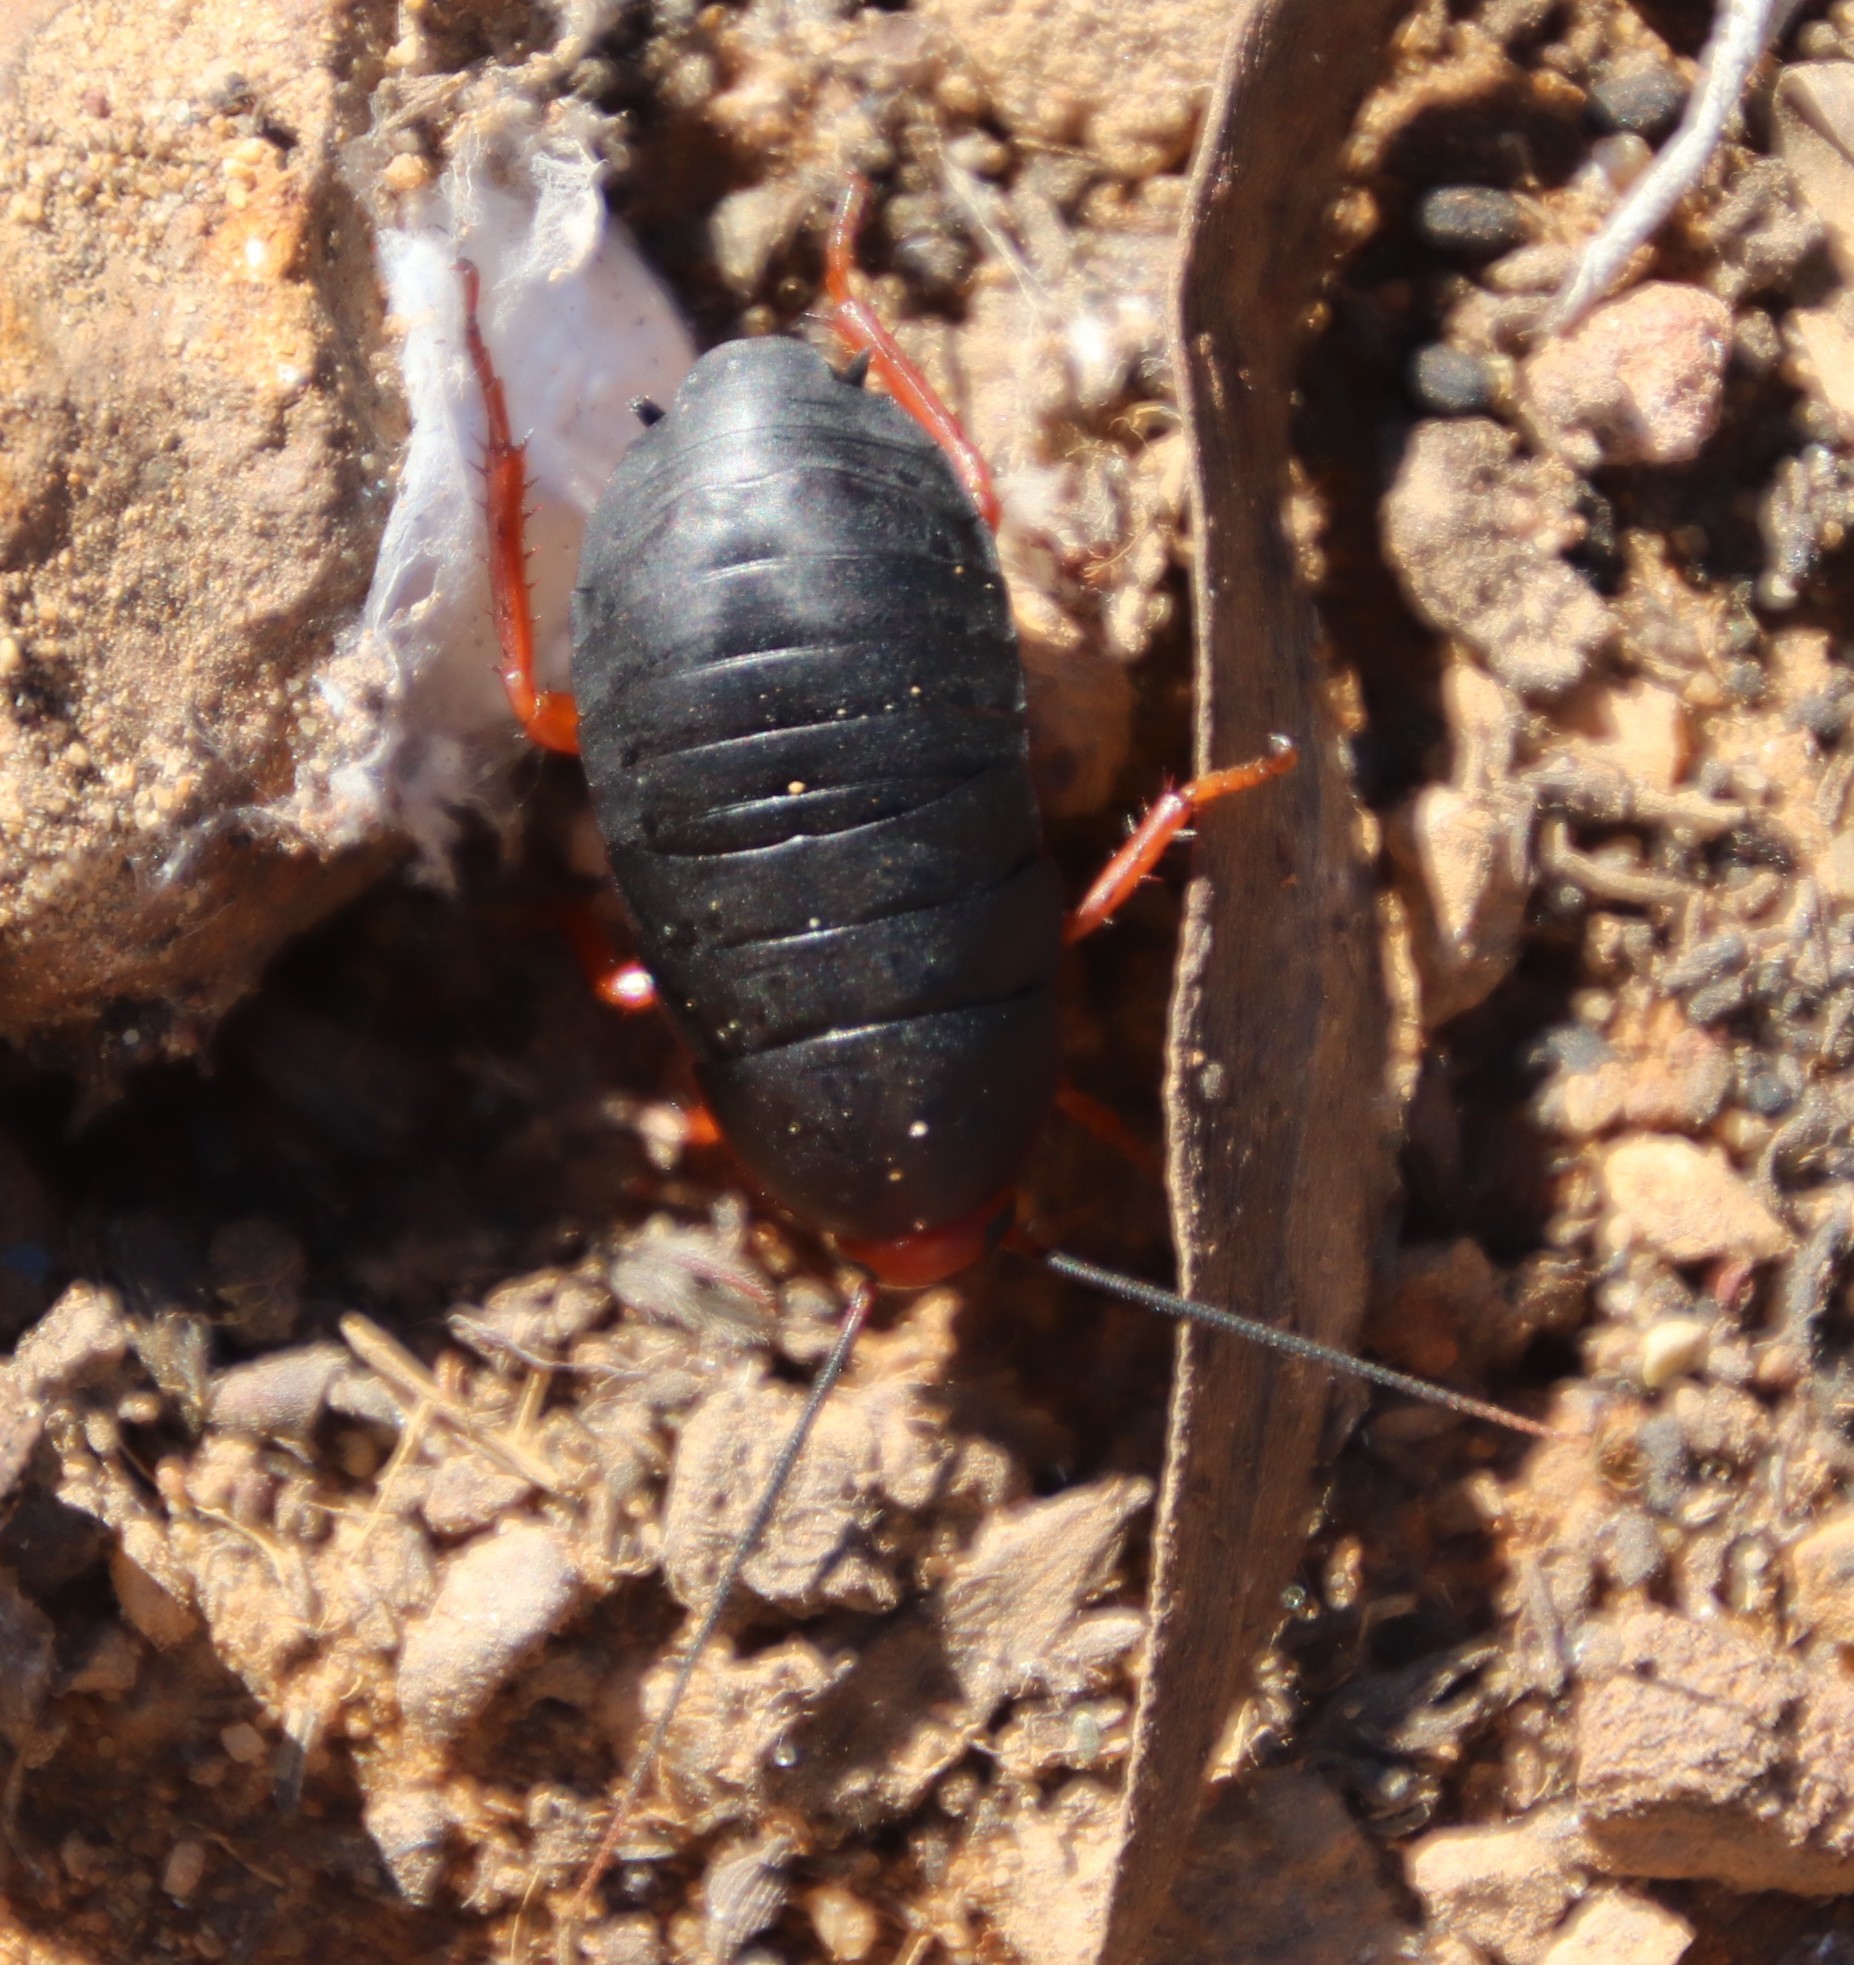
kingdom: Animalia
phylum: Arthropoda
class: Insecta
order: Blattodea
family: Blattidae
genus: Deropeltis
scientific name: Deropeltis erythrocephala
